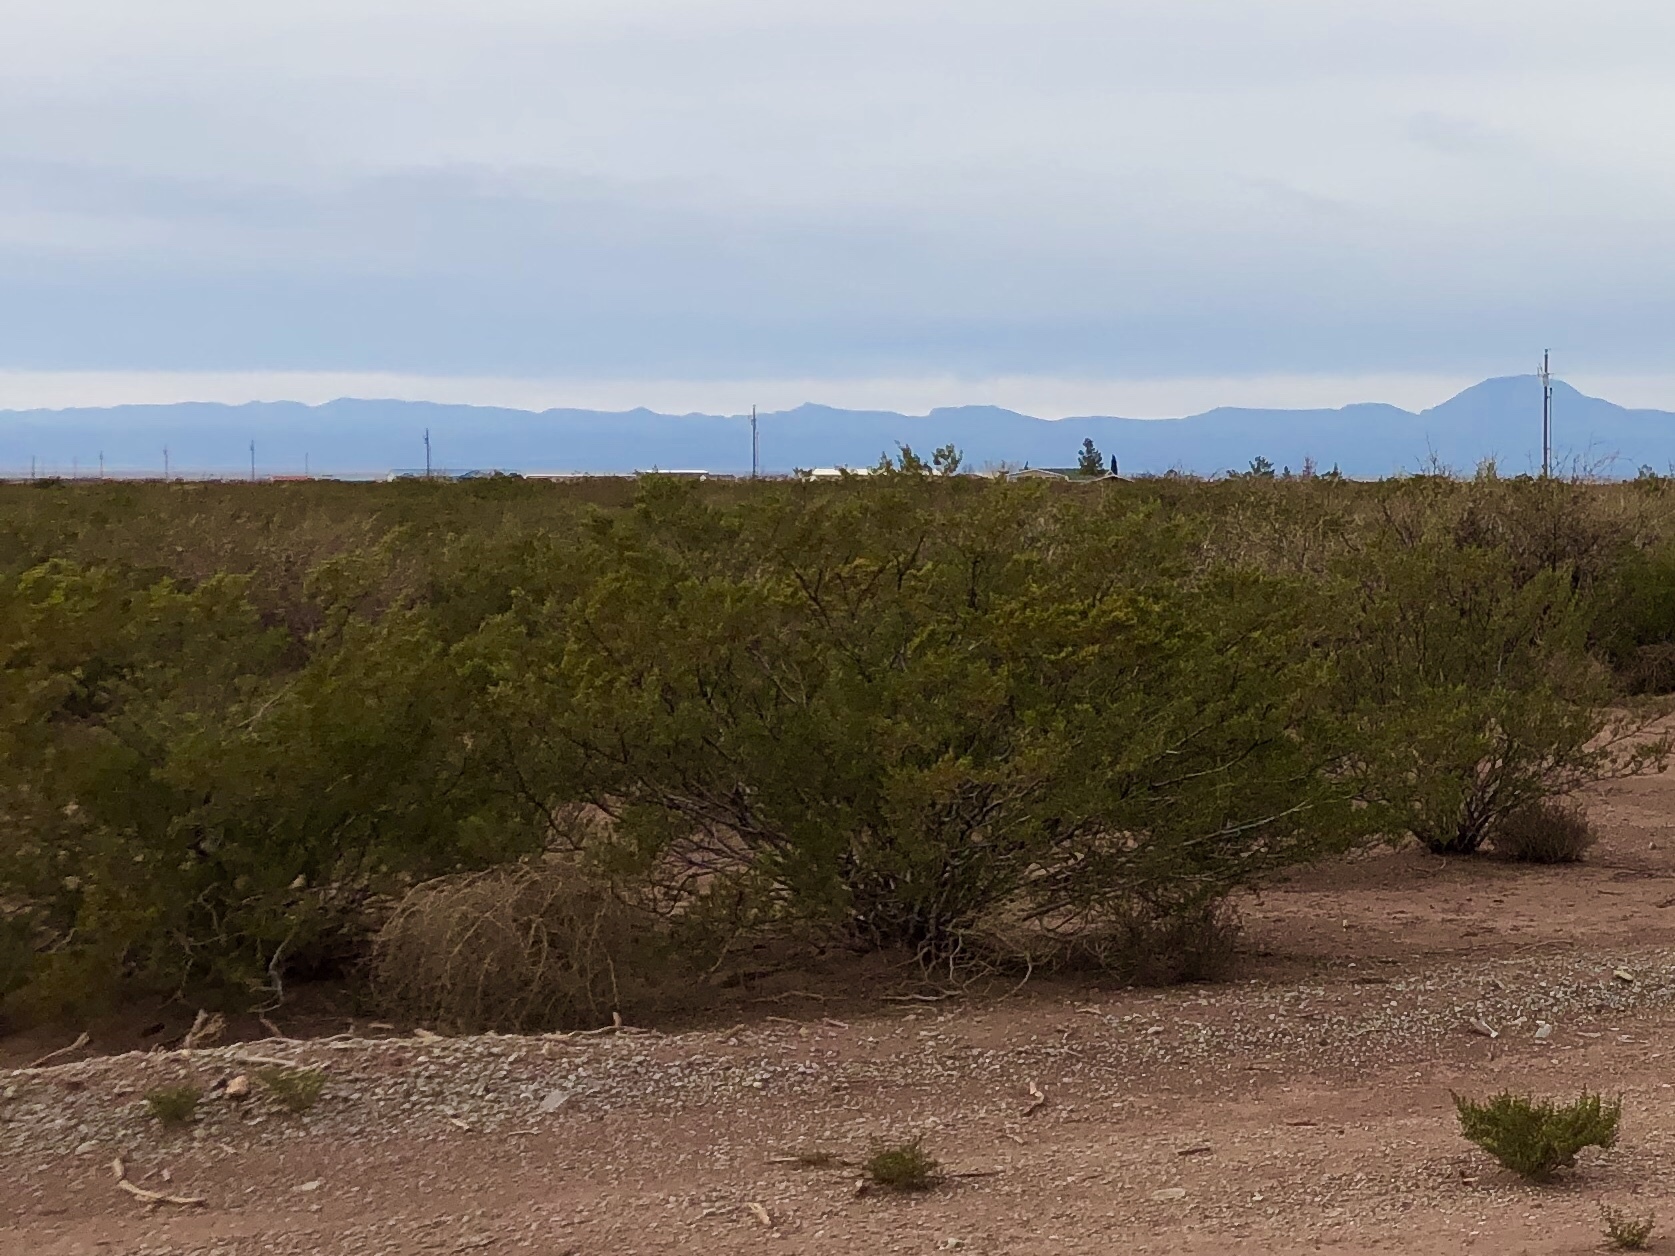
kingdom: Plantae
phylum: Tracheophyta
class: Magnoliopsida
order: Zygophyllales
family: Zygophyllaceae
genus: Larrea
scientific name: Larrea tridentata
